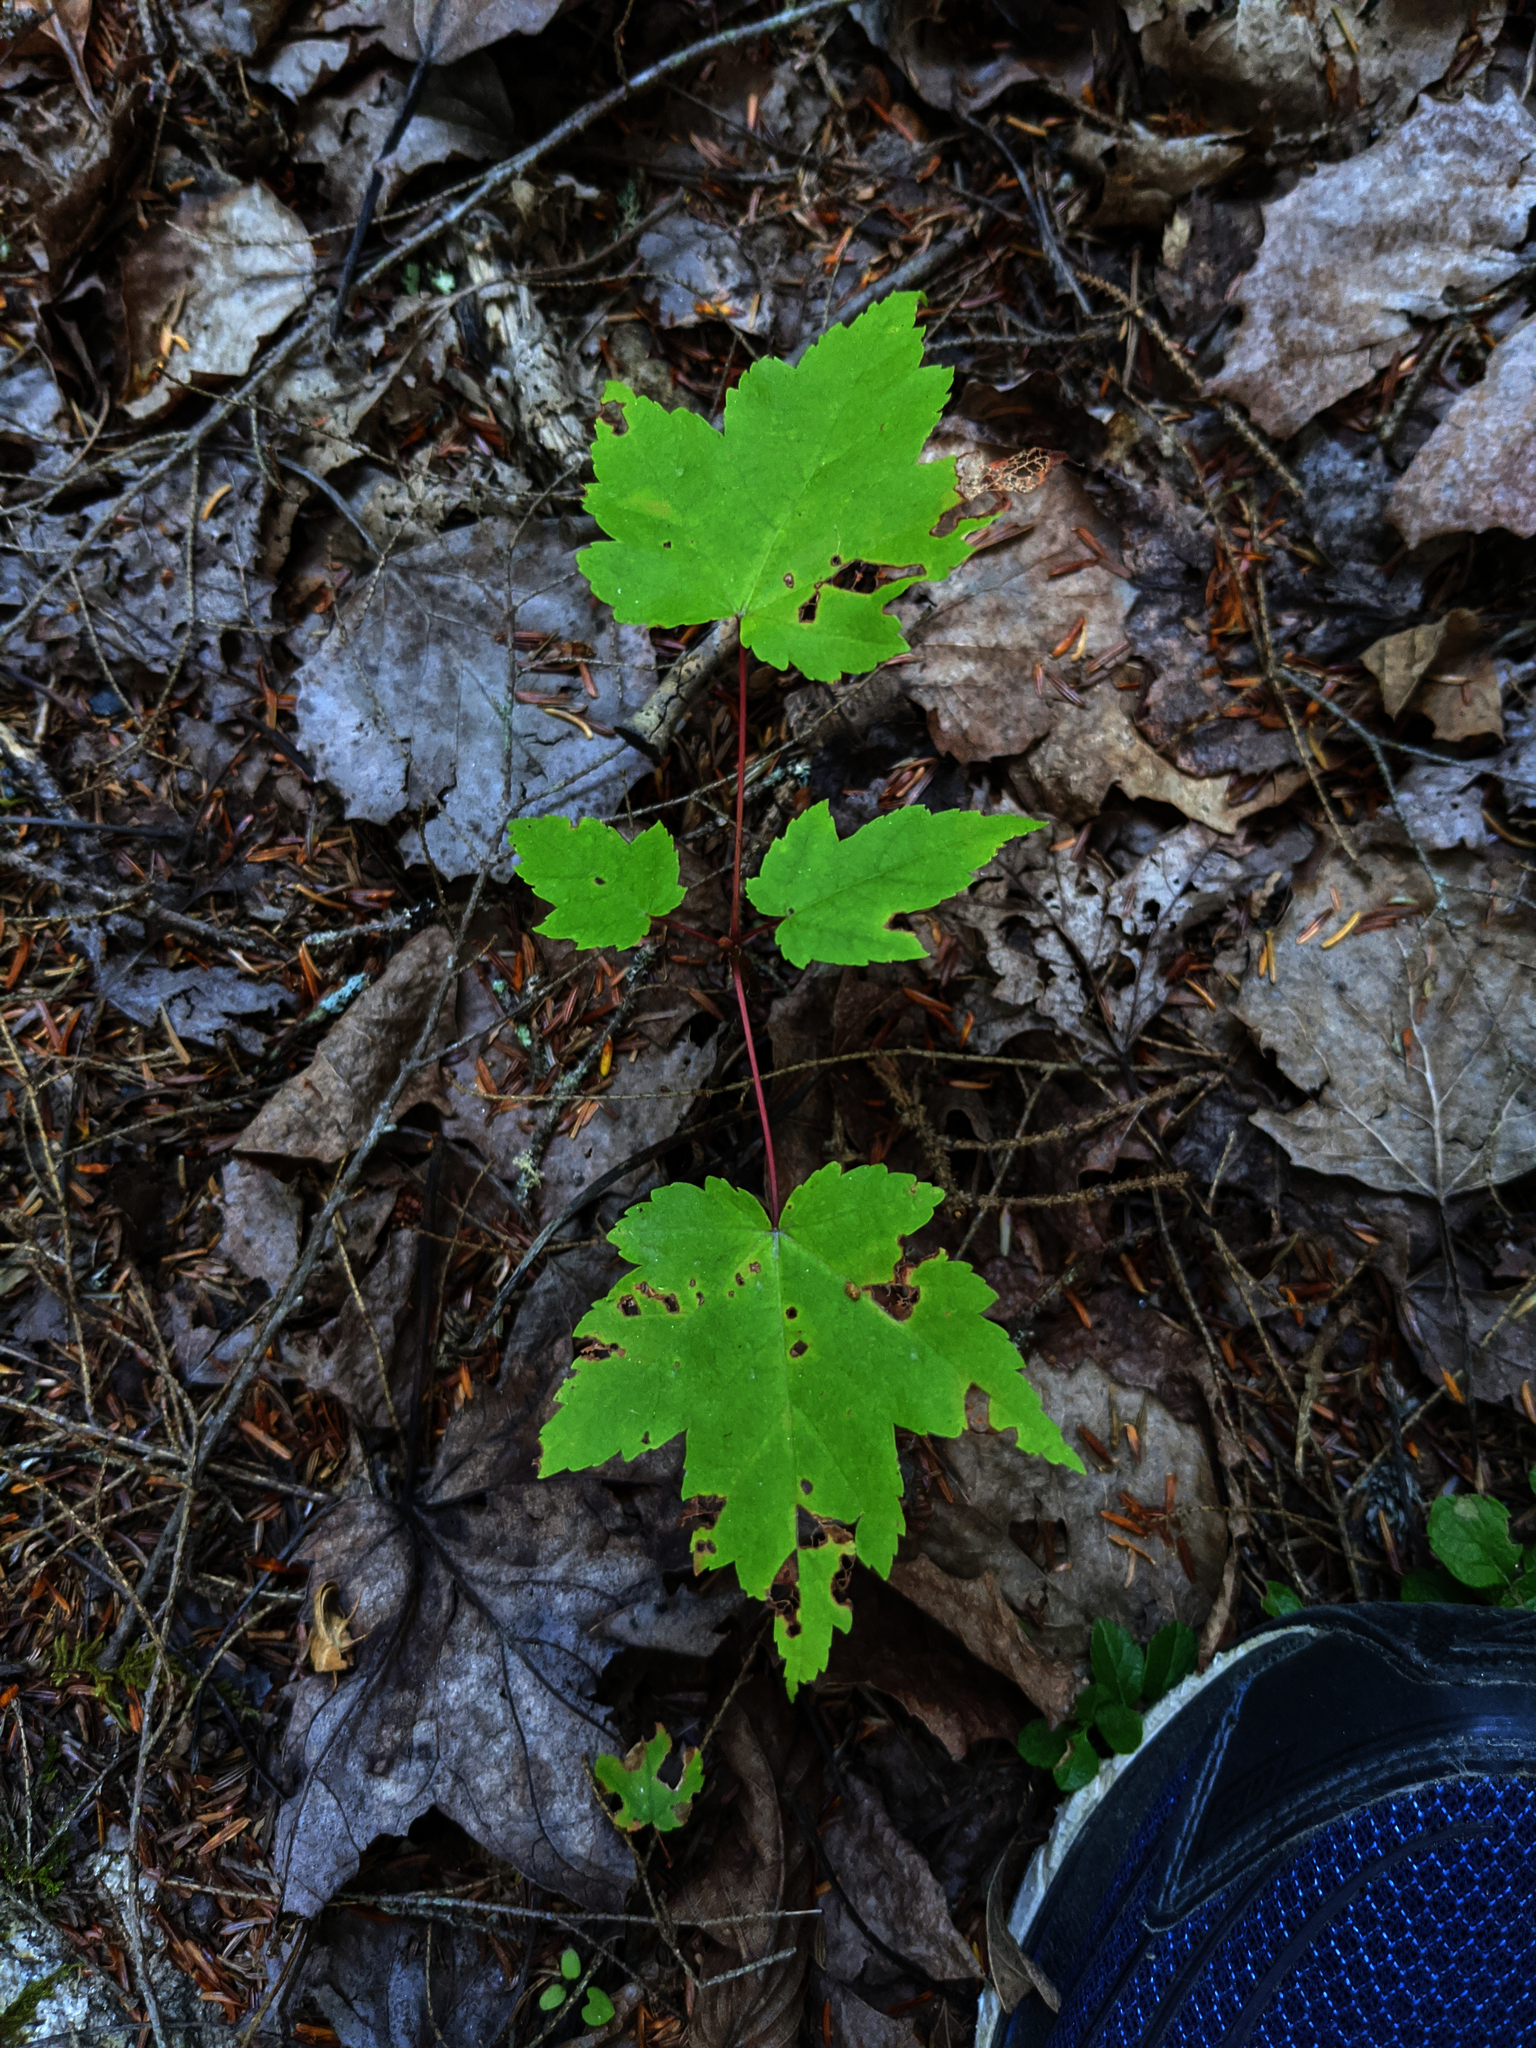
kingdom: Plantae
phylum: Tracheophyta
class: Magnoliopsida
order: Sapindales
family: Sapindaceae
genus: Acer
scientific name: Acer rubrum
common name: Red maple
